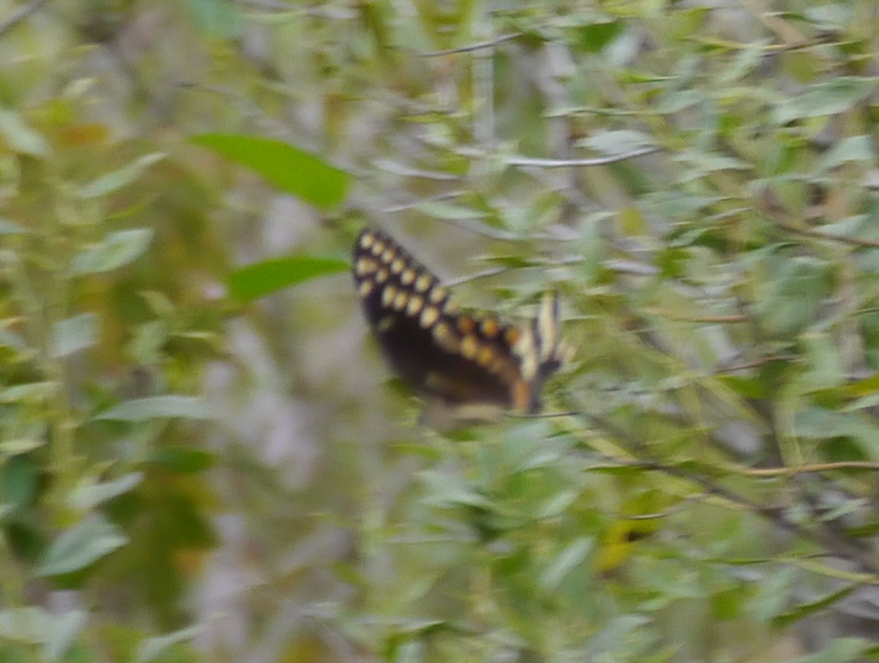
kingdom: Animalia
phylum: Arthropoda
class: Insecta
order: Lepidoptera
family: Papilionidae
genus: Papilio
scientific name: Papilio palamedes
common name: Palamedes swallowtail
